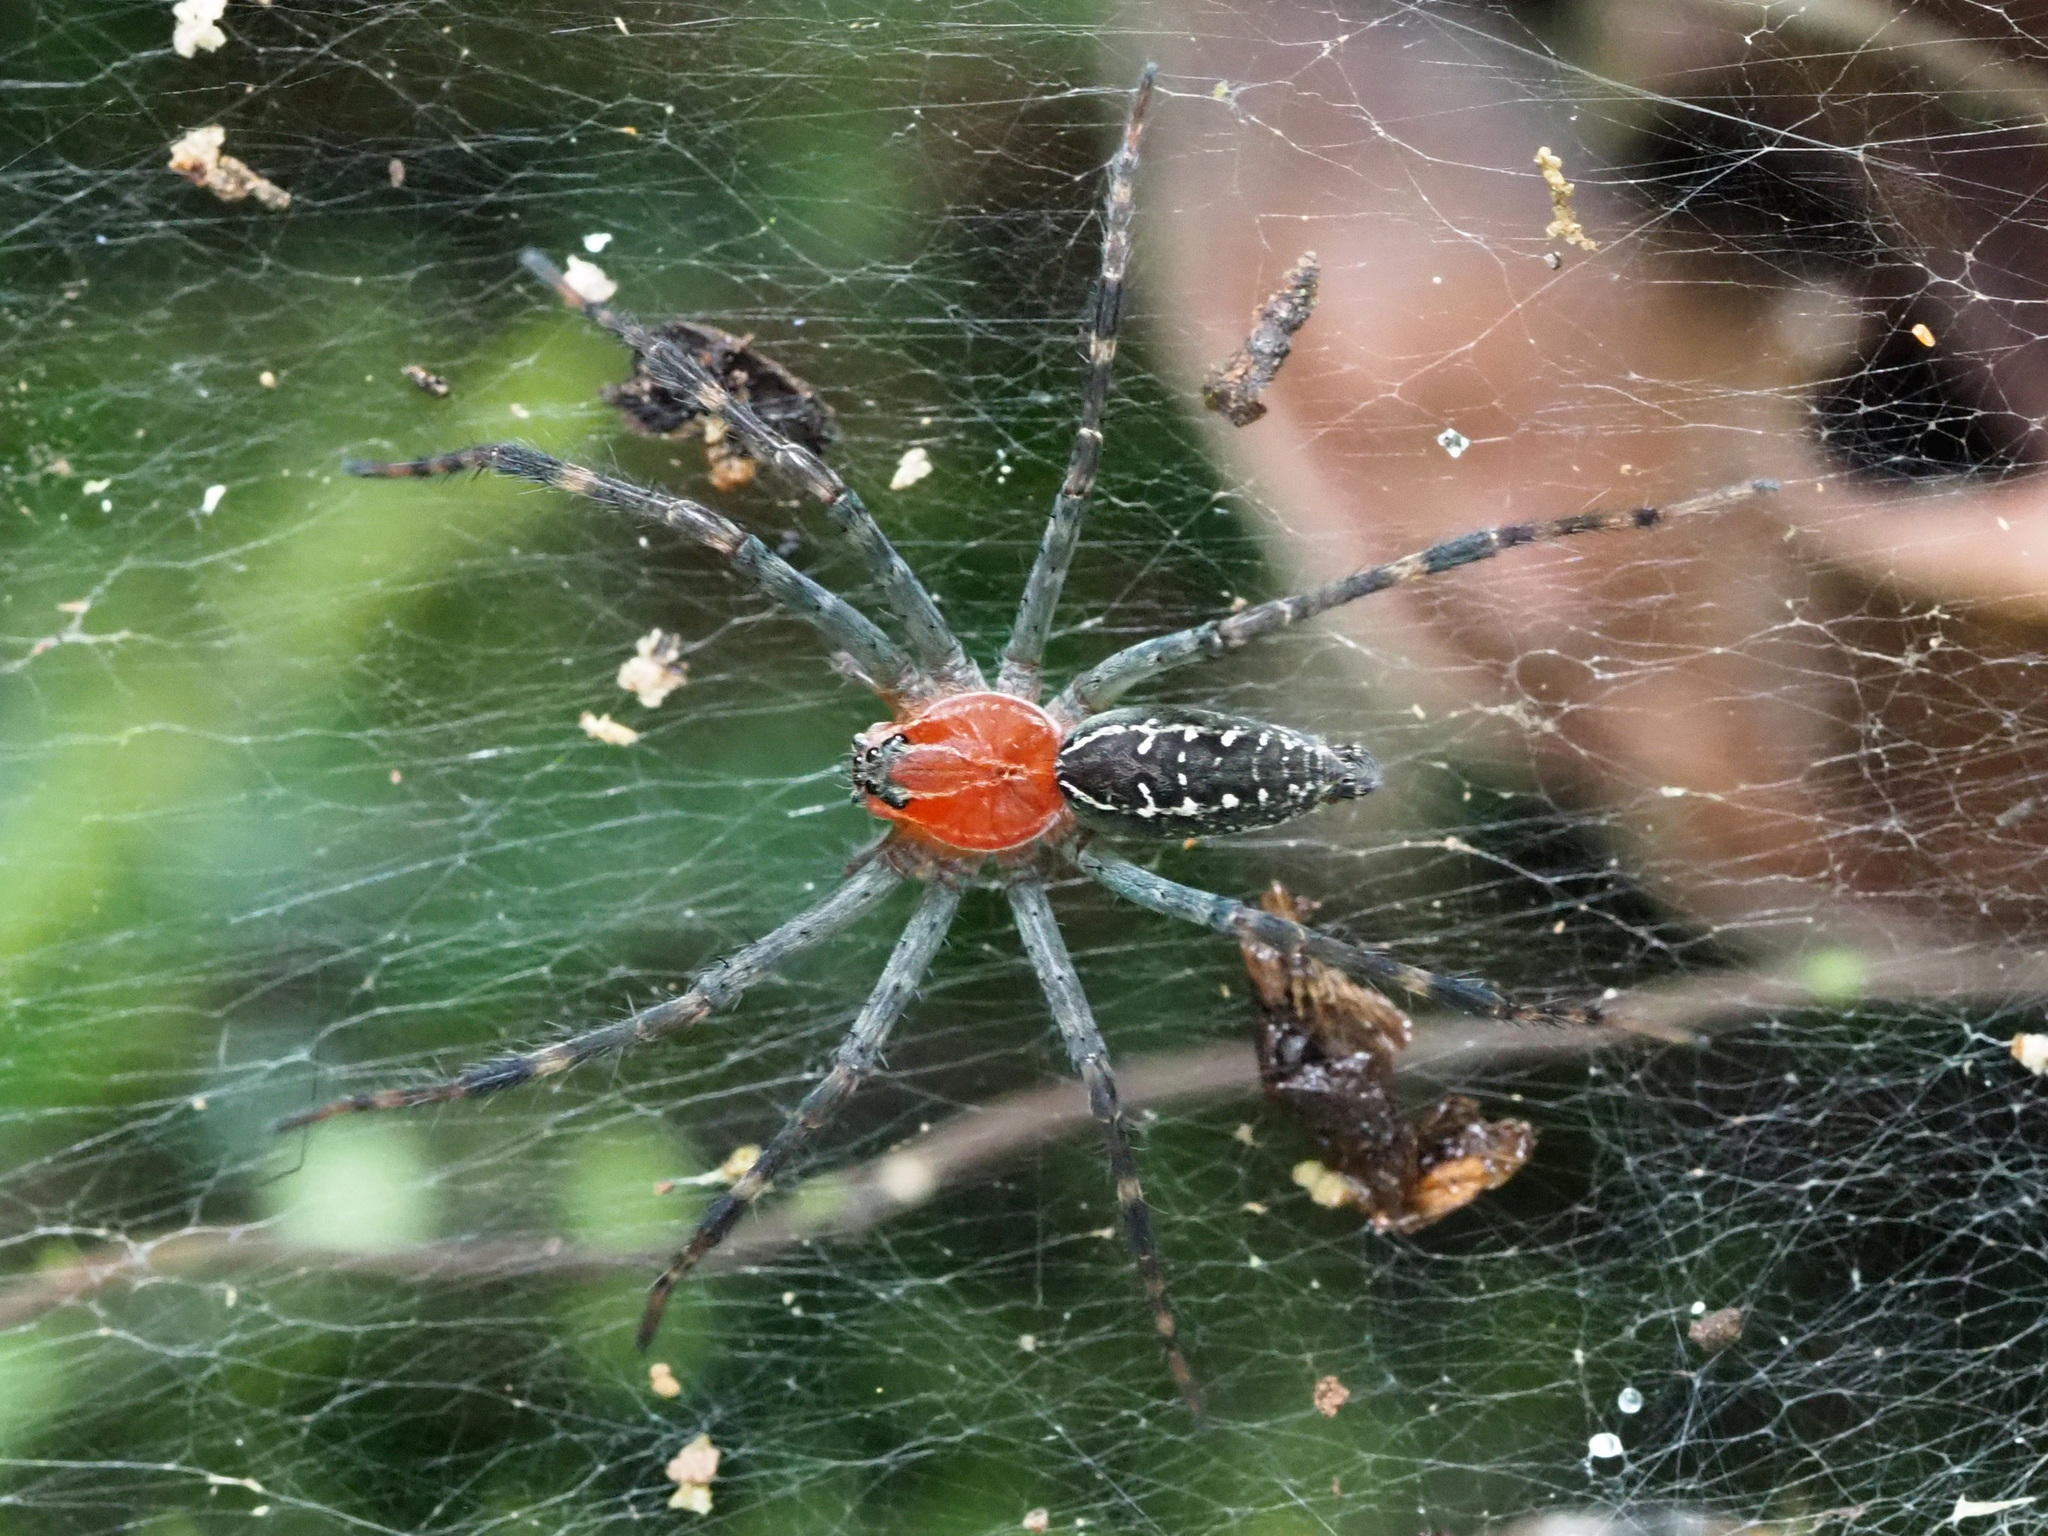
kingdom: Animalia
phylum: Arthropoda
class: Arachnida
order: Araneae
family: Lycosidae
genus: Aglaoctenus
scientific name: Aglaoctenus castaneus
